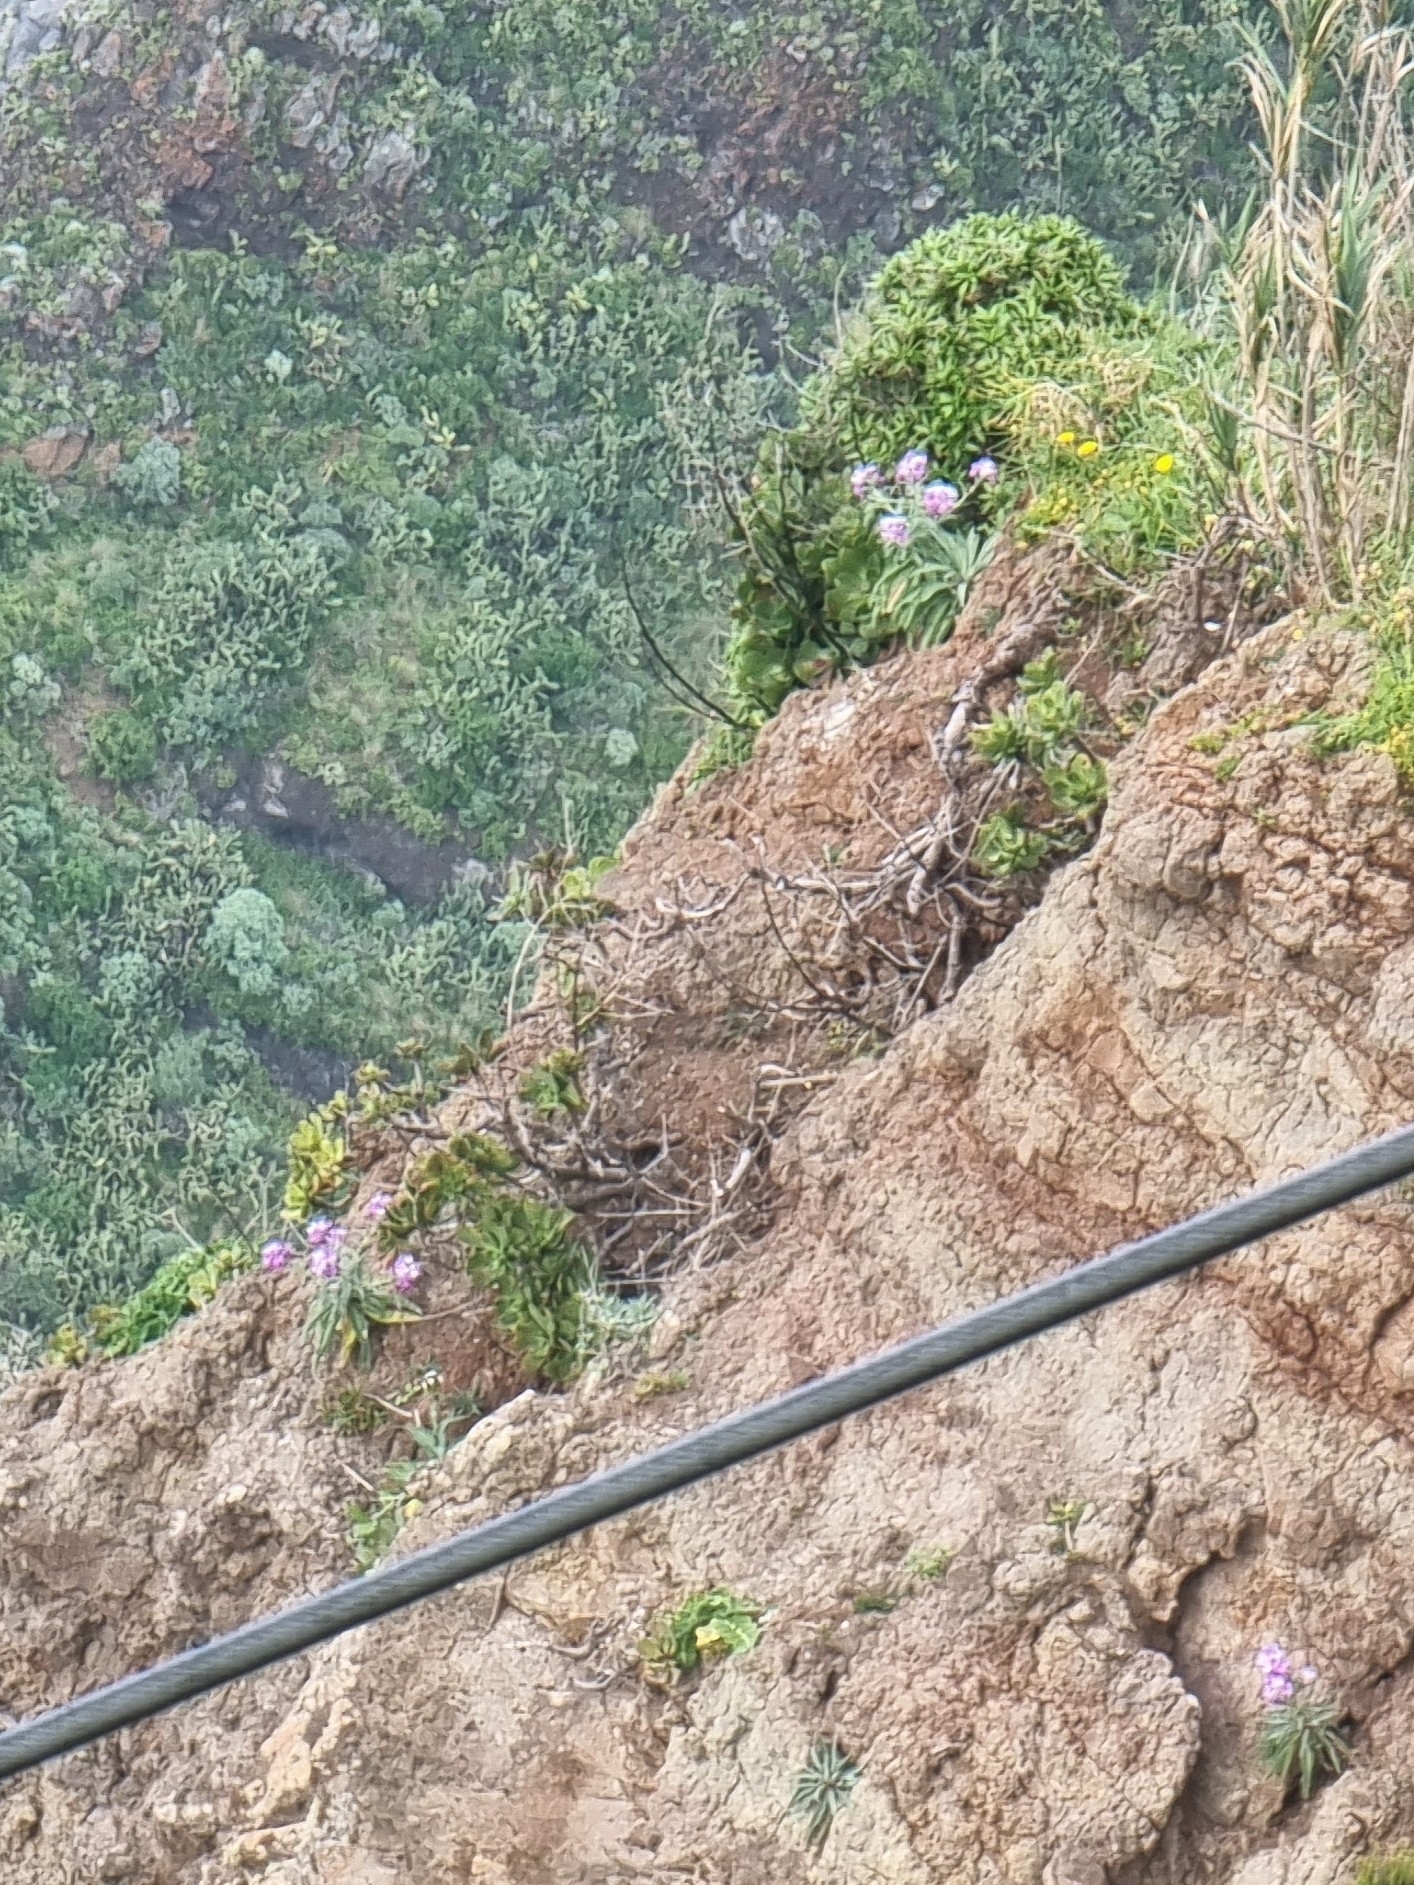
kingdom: Plantae
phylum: Tracheophyta
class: Magnoliopsida
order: Brassicales
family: Brassicaceae
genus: Matthiola
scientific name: Matthiola maderensis
